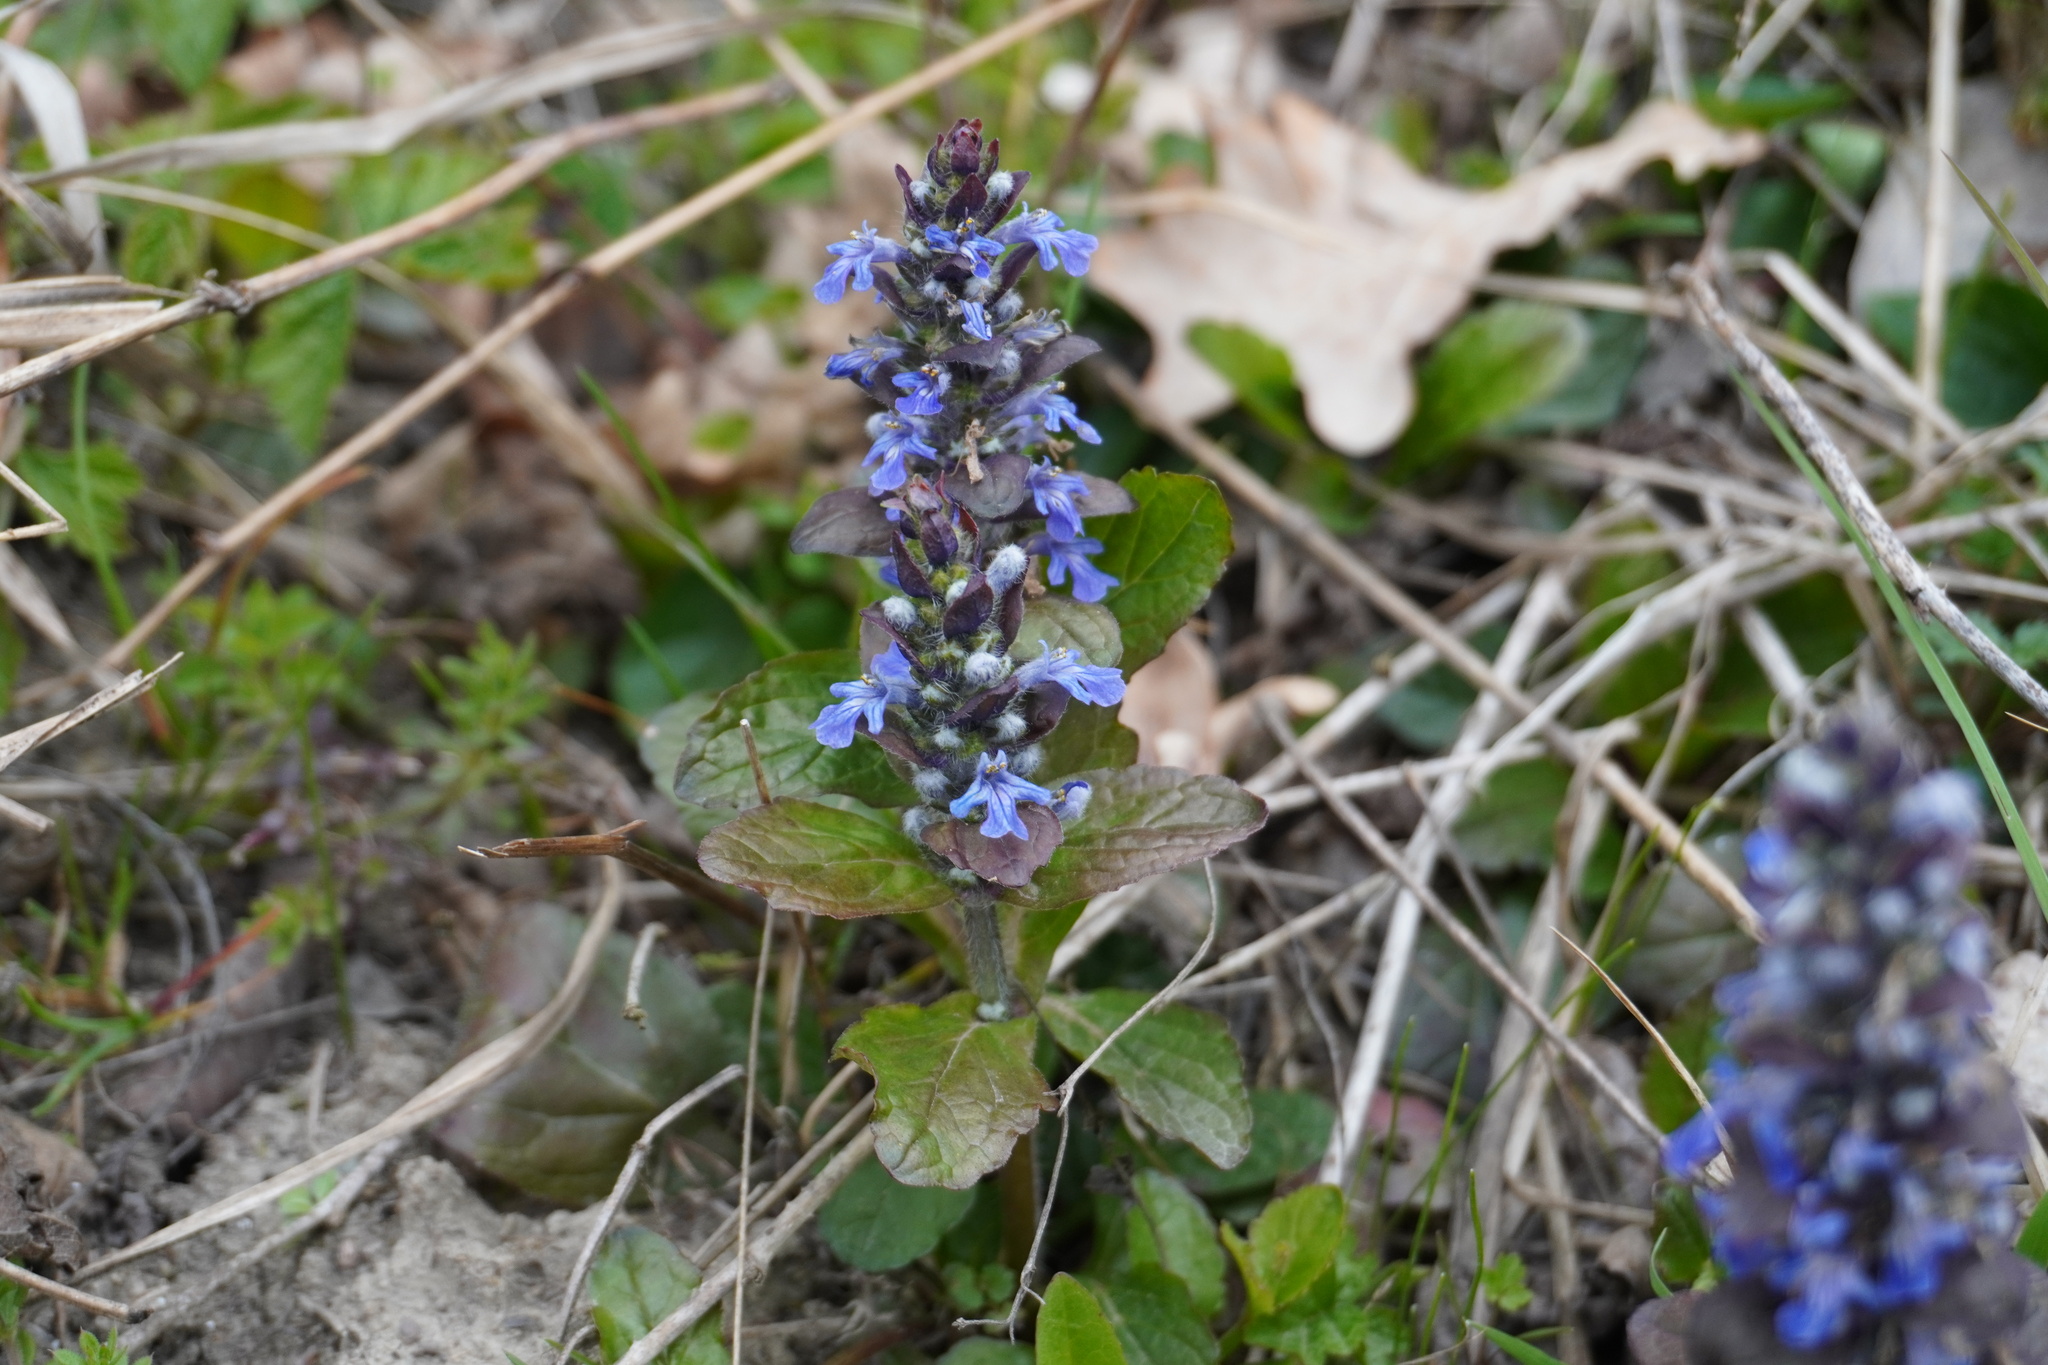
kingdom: Plantae
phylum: Tracheophyta
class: Magnoliopsida
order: Lamiales
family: Lamiaceae
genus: Ajuga
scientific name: Ajuga reptans
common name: Bugle
